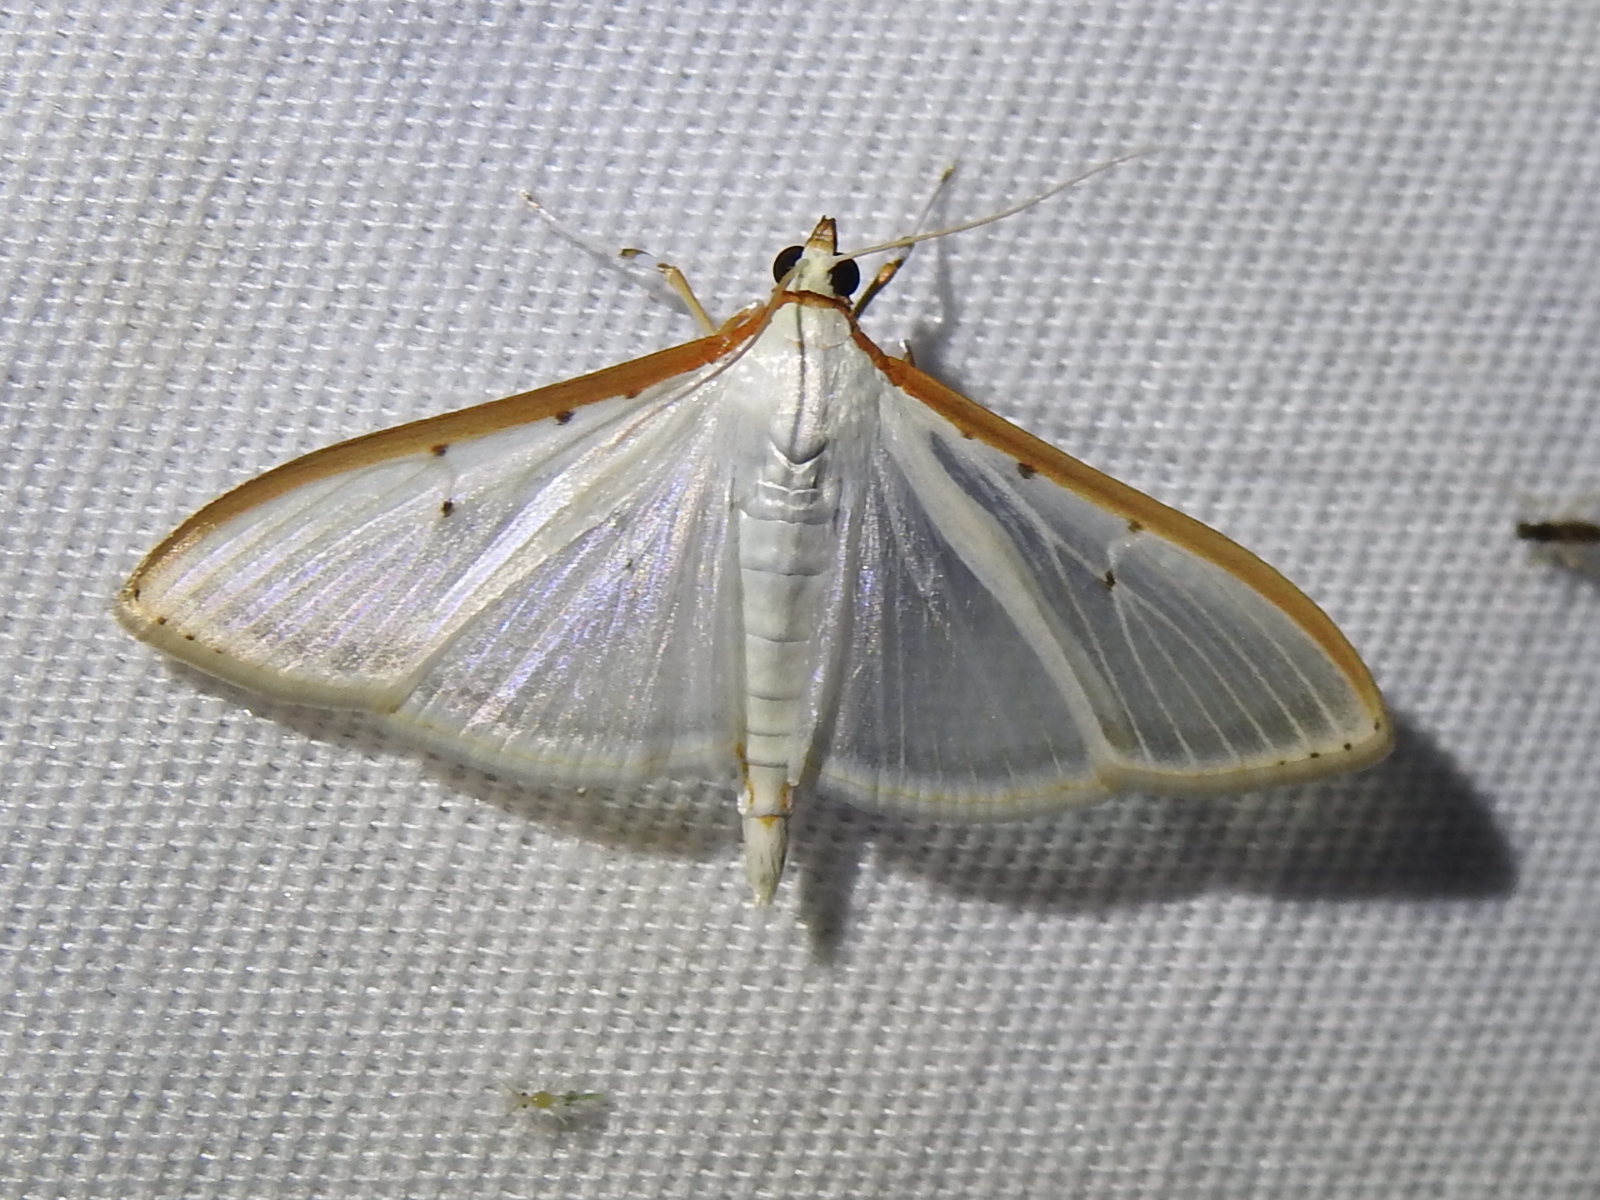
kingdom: Animalia
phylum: Arthropoda
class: Insecta
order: Lepidoptera
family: Crambidae
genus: Palpita
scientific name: Palpita quadristigmalis
